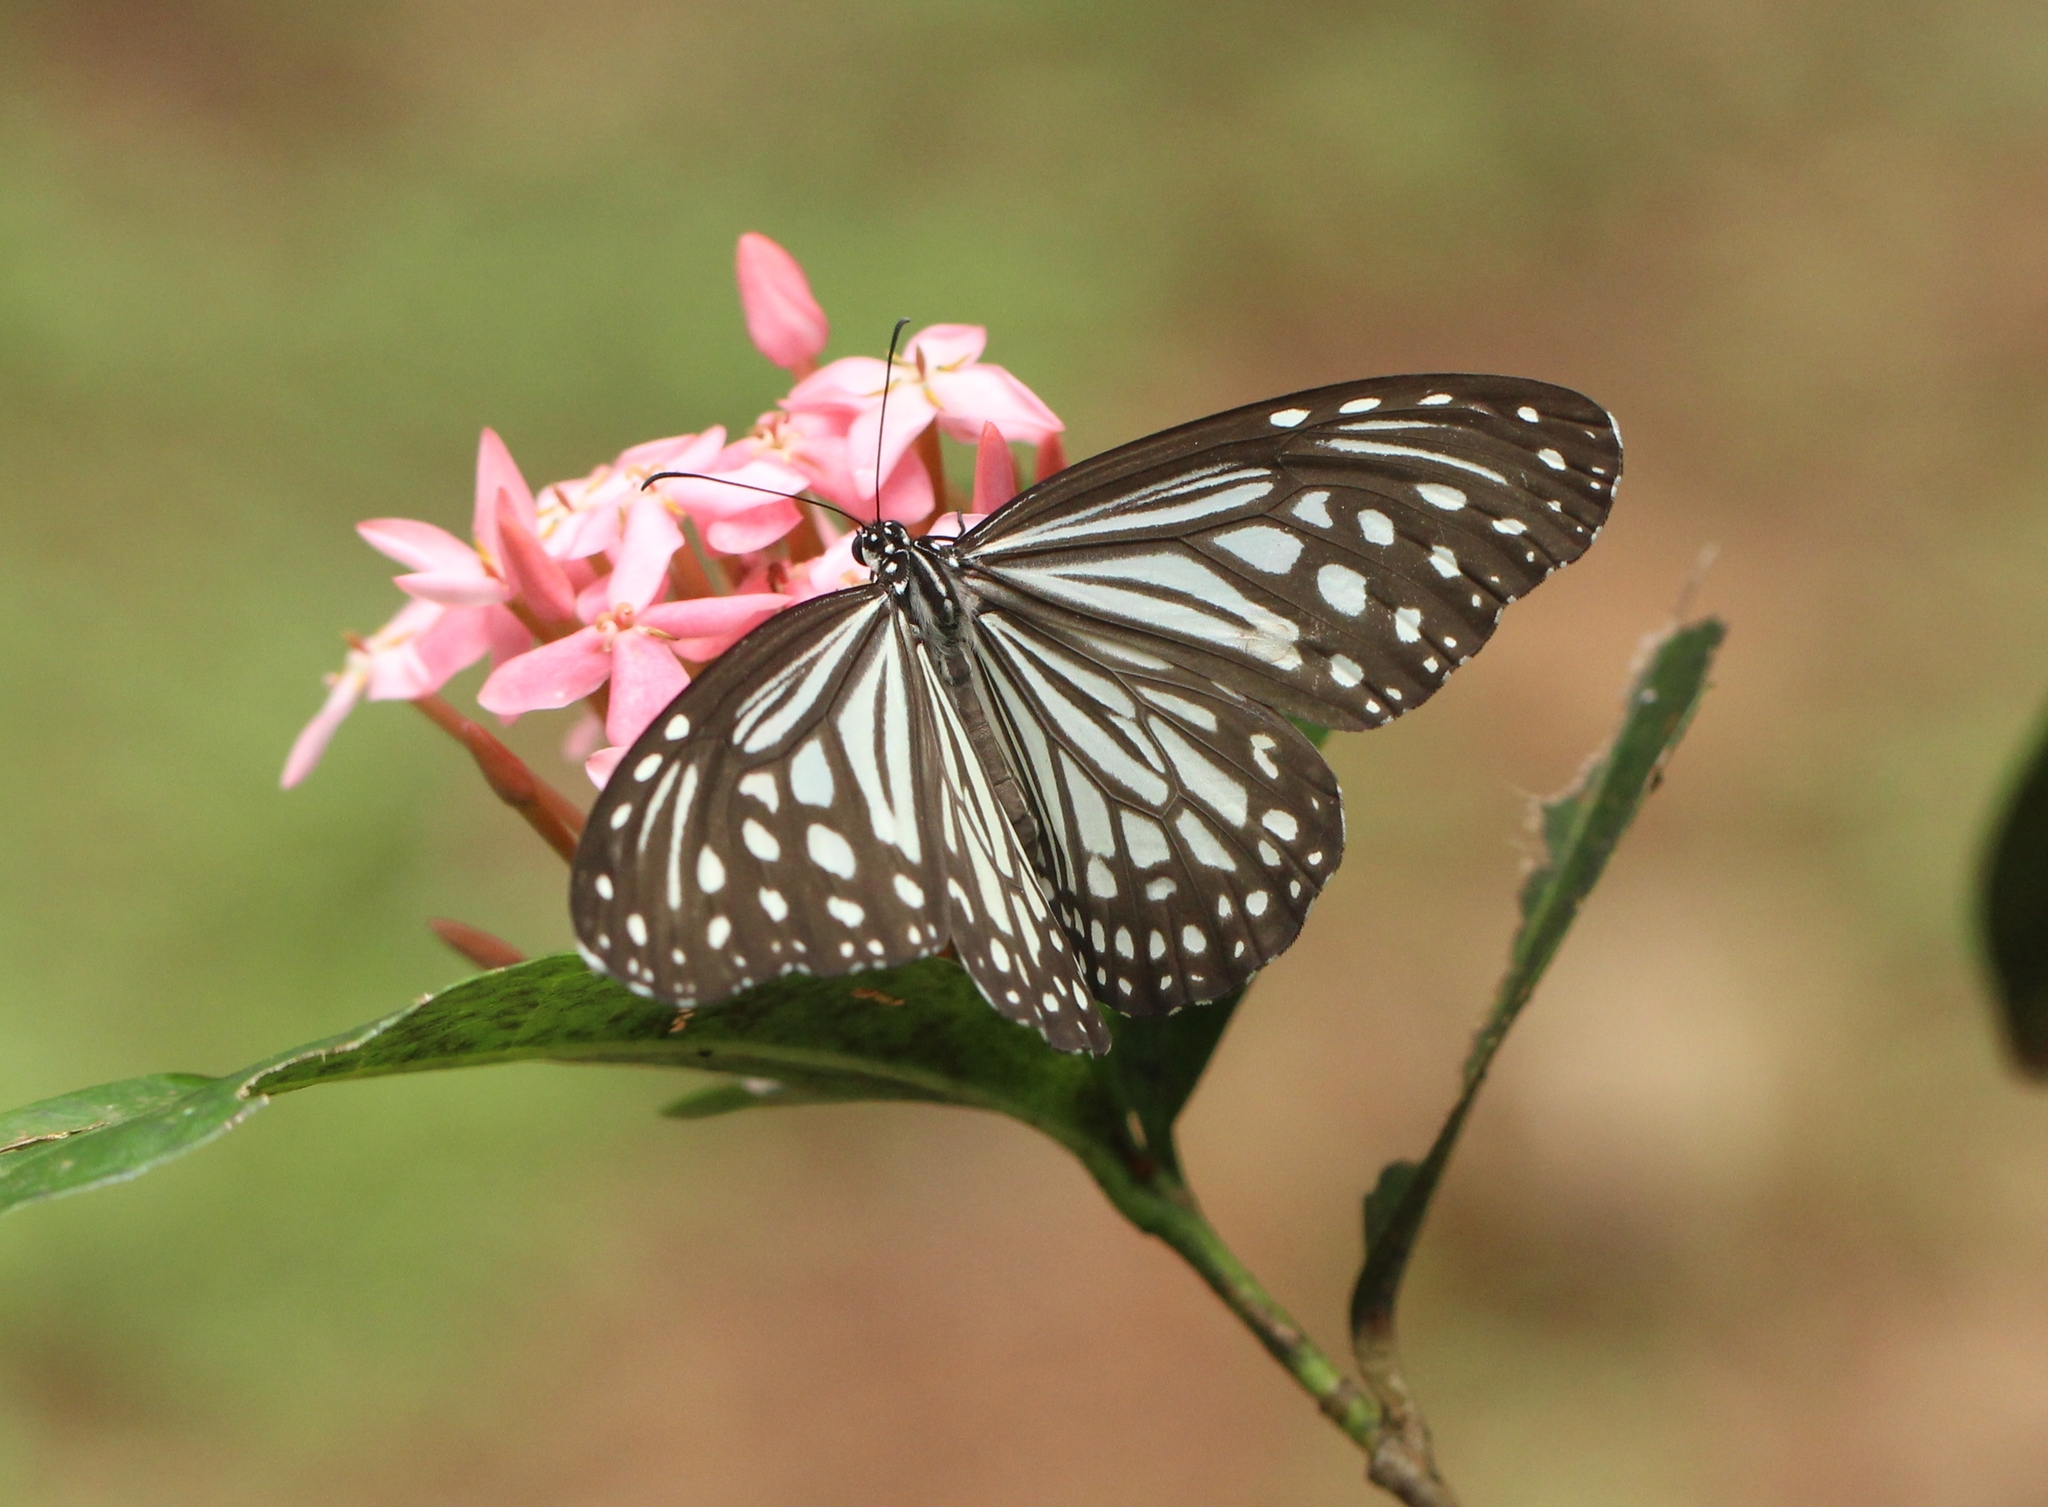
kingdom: Animalia
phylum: Arthropoda
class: Insecta
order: Lepidoptera
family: Nymphalidae
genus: Parantica
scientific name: Parantica aglea
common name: Glassy tiger
